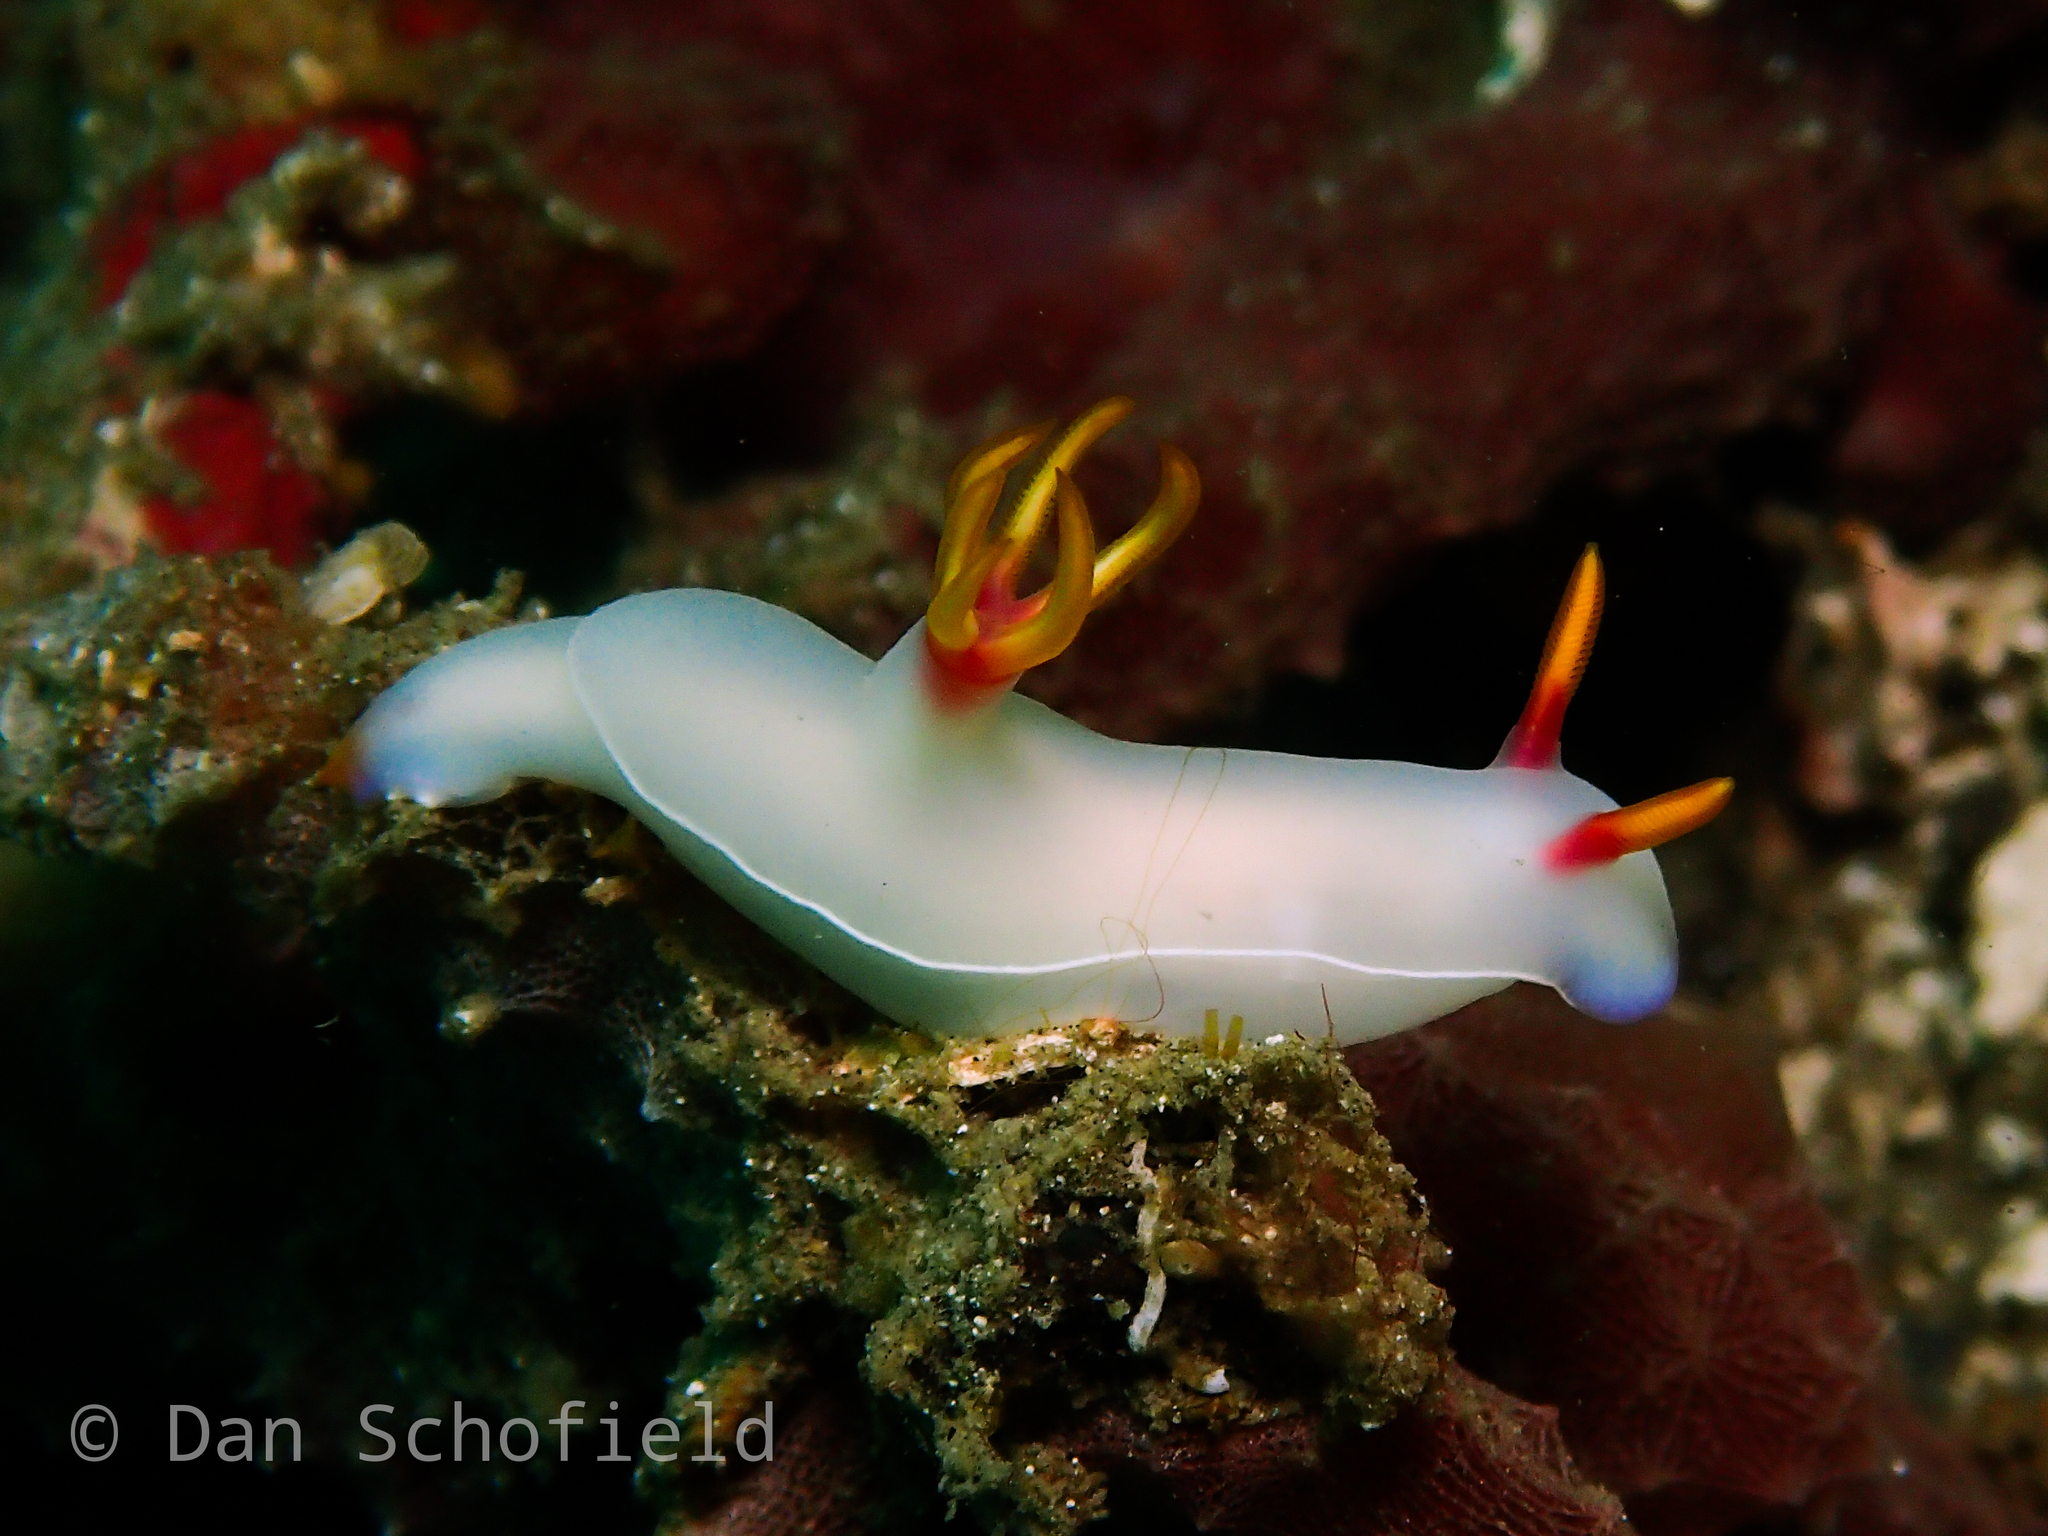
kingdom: Animalia
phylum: Mollusca
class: Gastropoda
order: Nudibranchia
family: Chromodorididae
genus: Hypselodoris
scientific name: Hypselodoris bullockii
